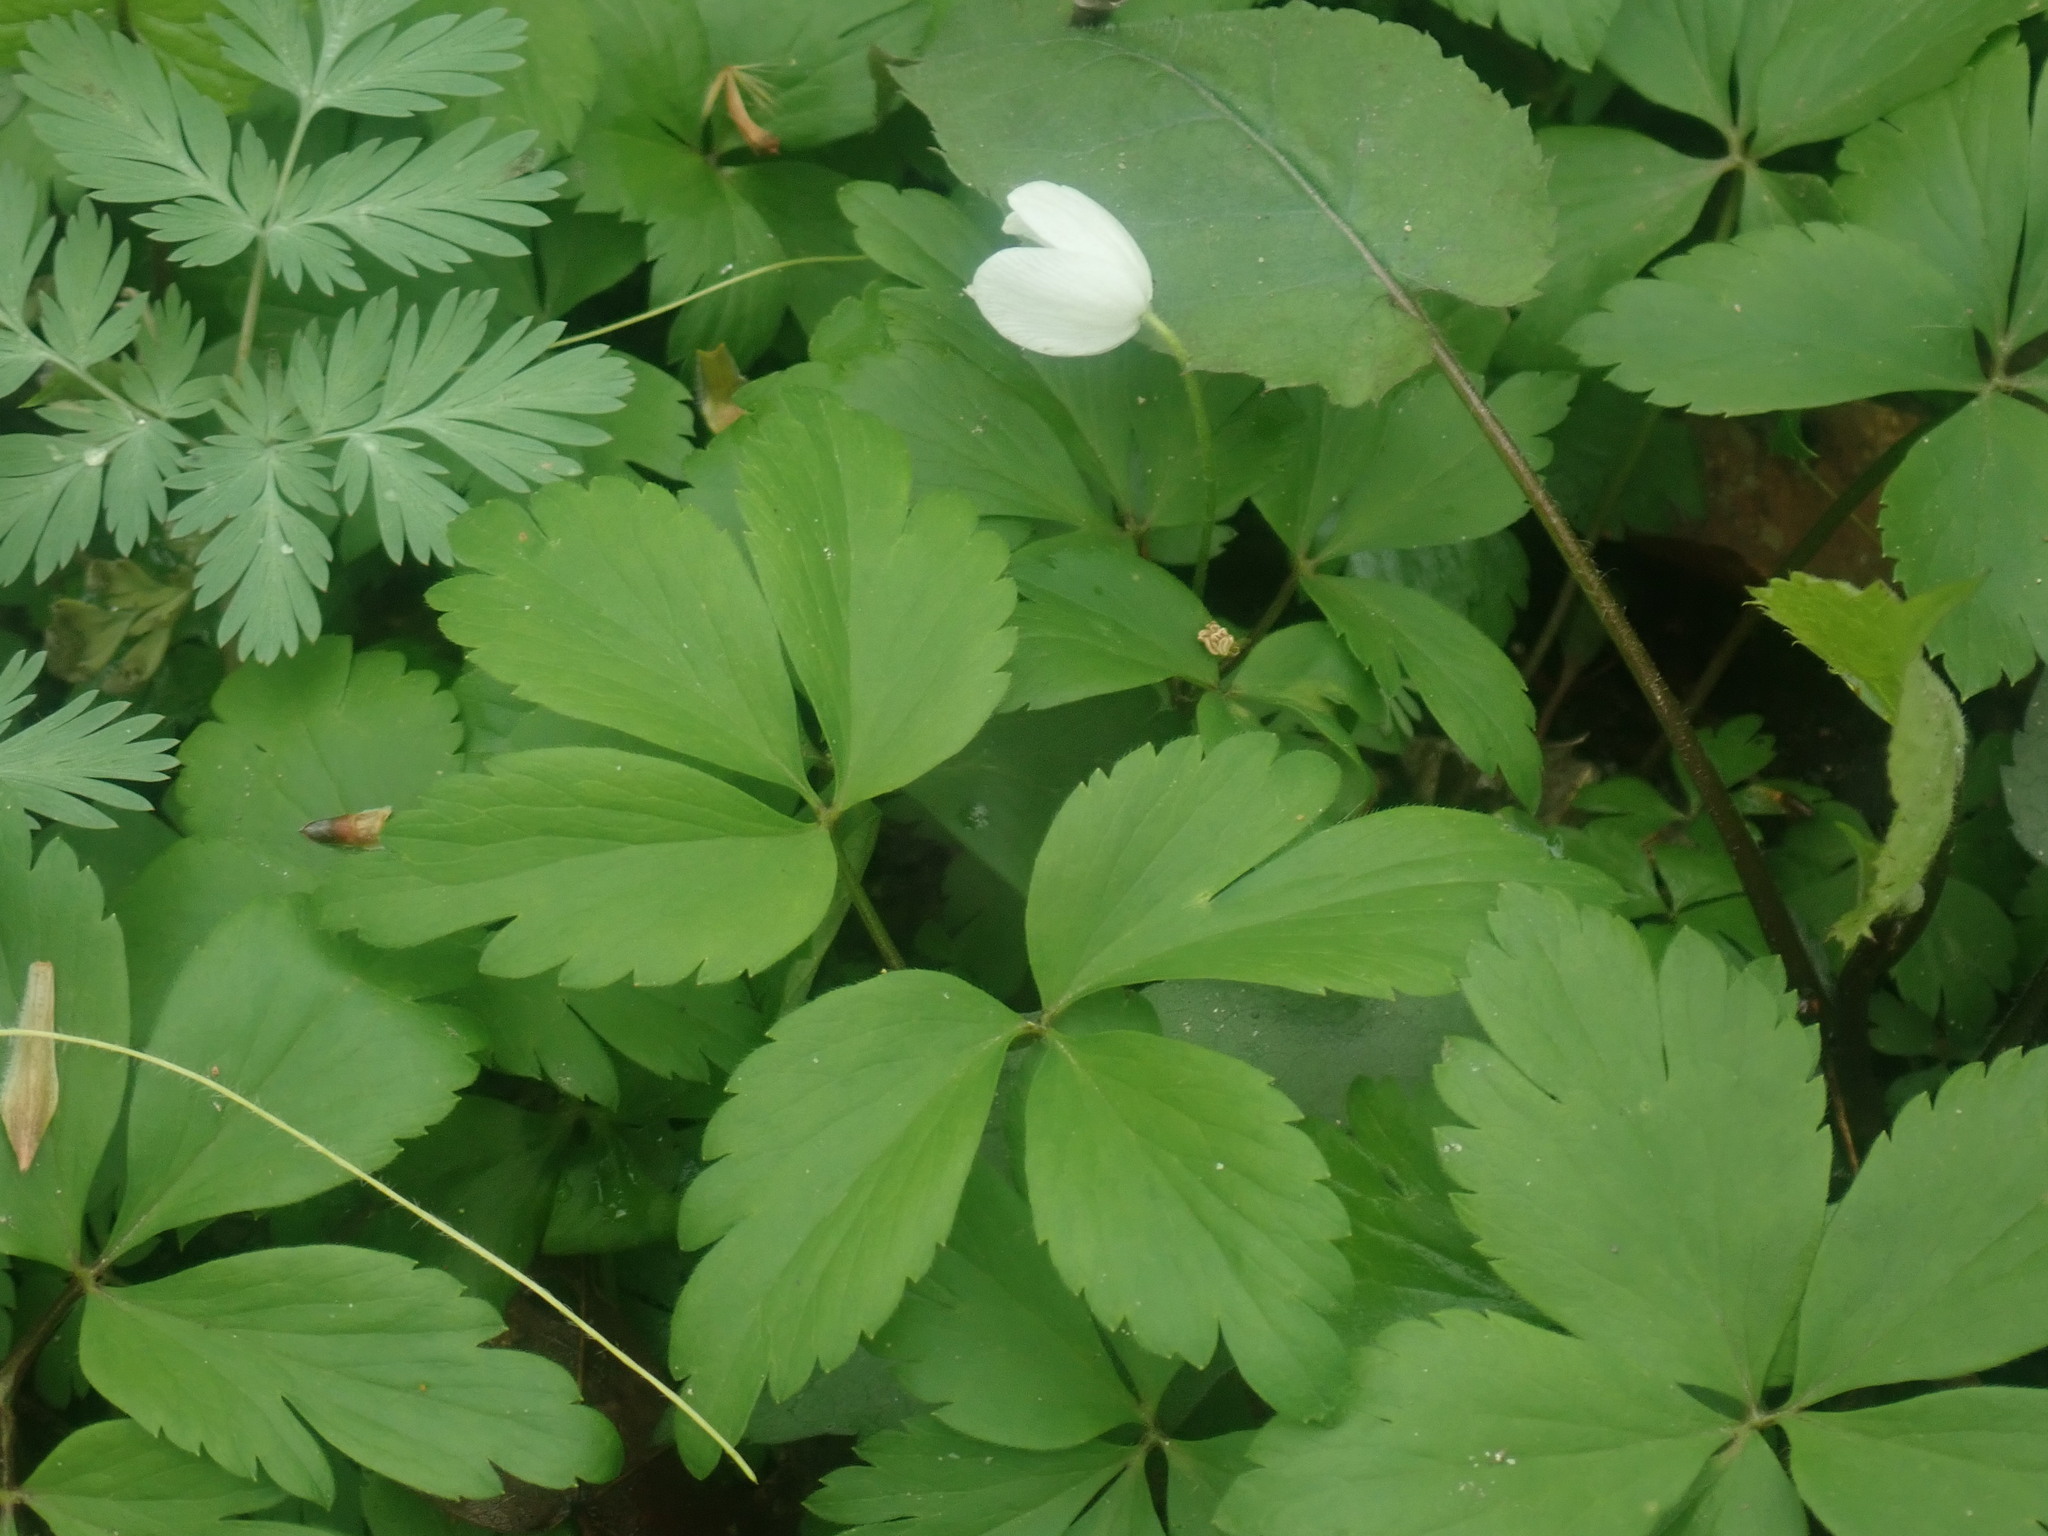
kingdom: Plantae
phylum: Tracheophyta
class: Magnoliopsida
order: Ranunculales
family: Ranunculaceae
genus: Anemone
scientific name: Anemone quinquefolia
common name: Wood anemone
